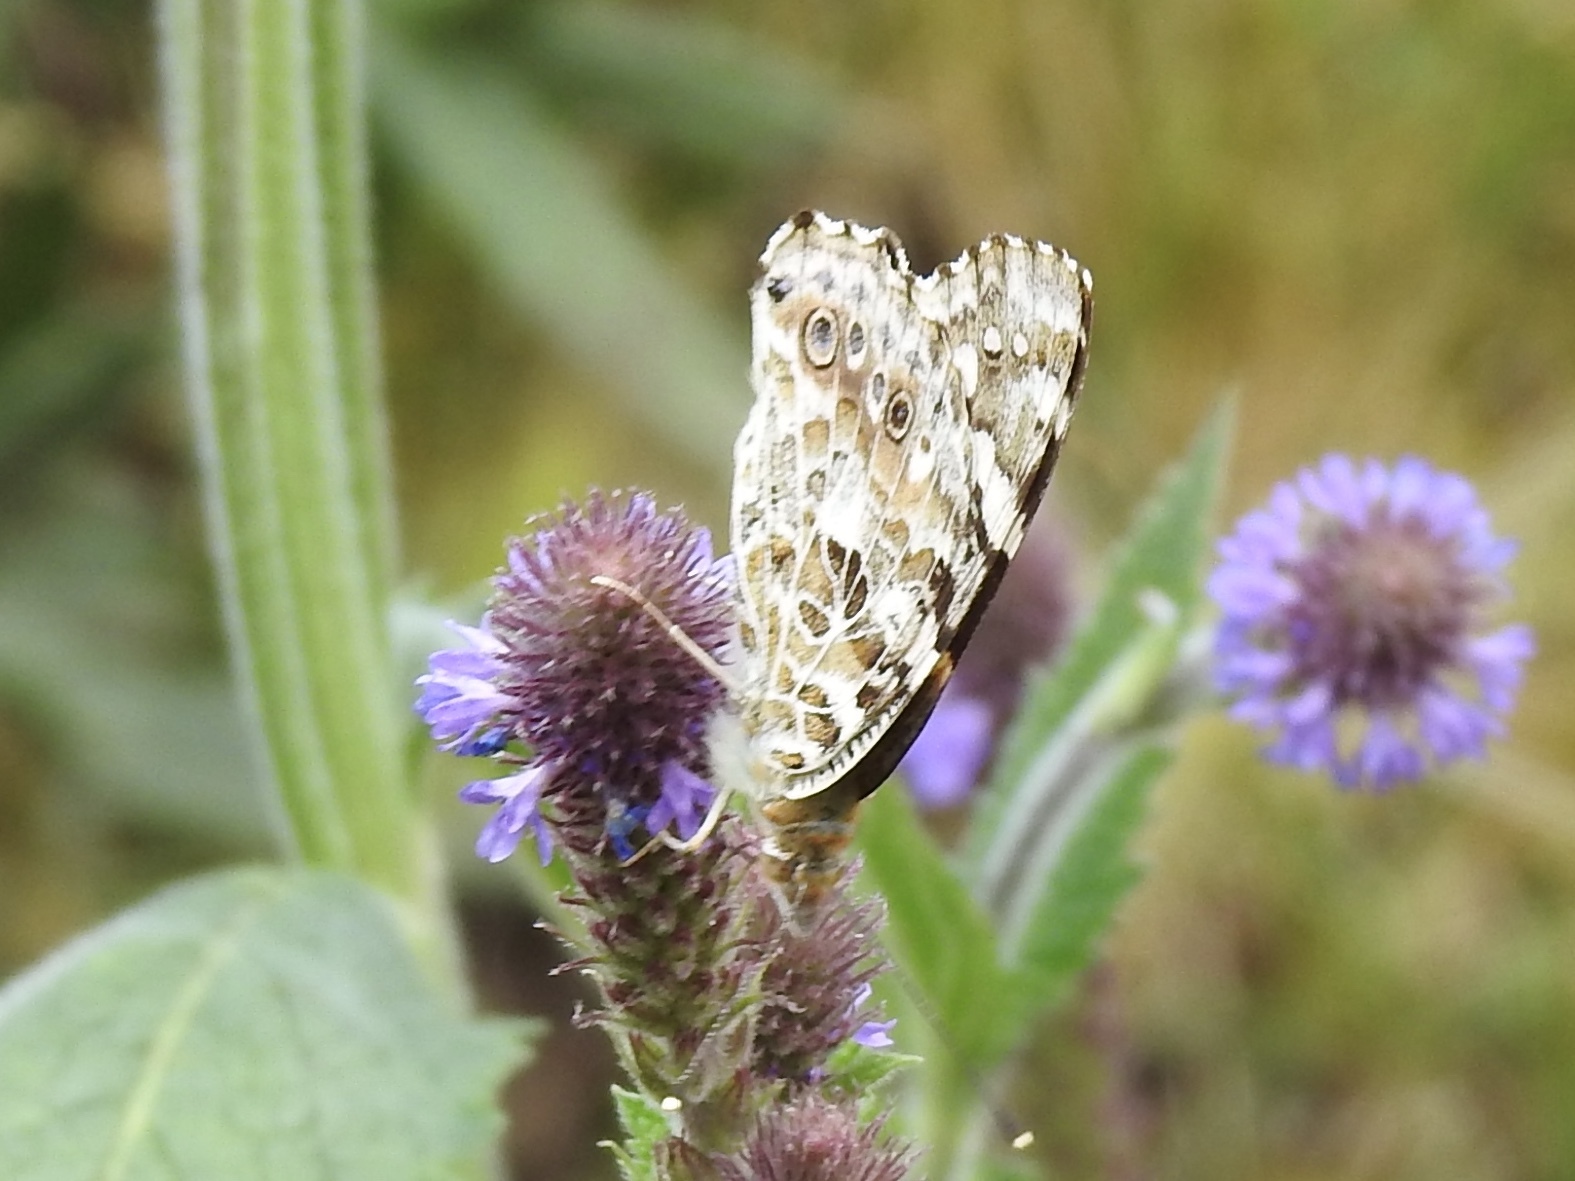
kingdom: Animalia
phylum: Arthropoda
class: Insecta
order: Lepidoptera
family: Nymphalidae
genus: Vanessa
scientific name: Vanessa cardui
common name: Painted lady
